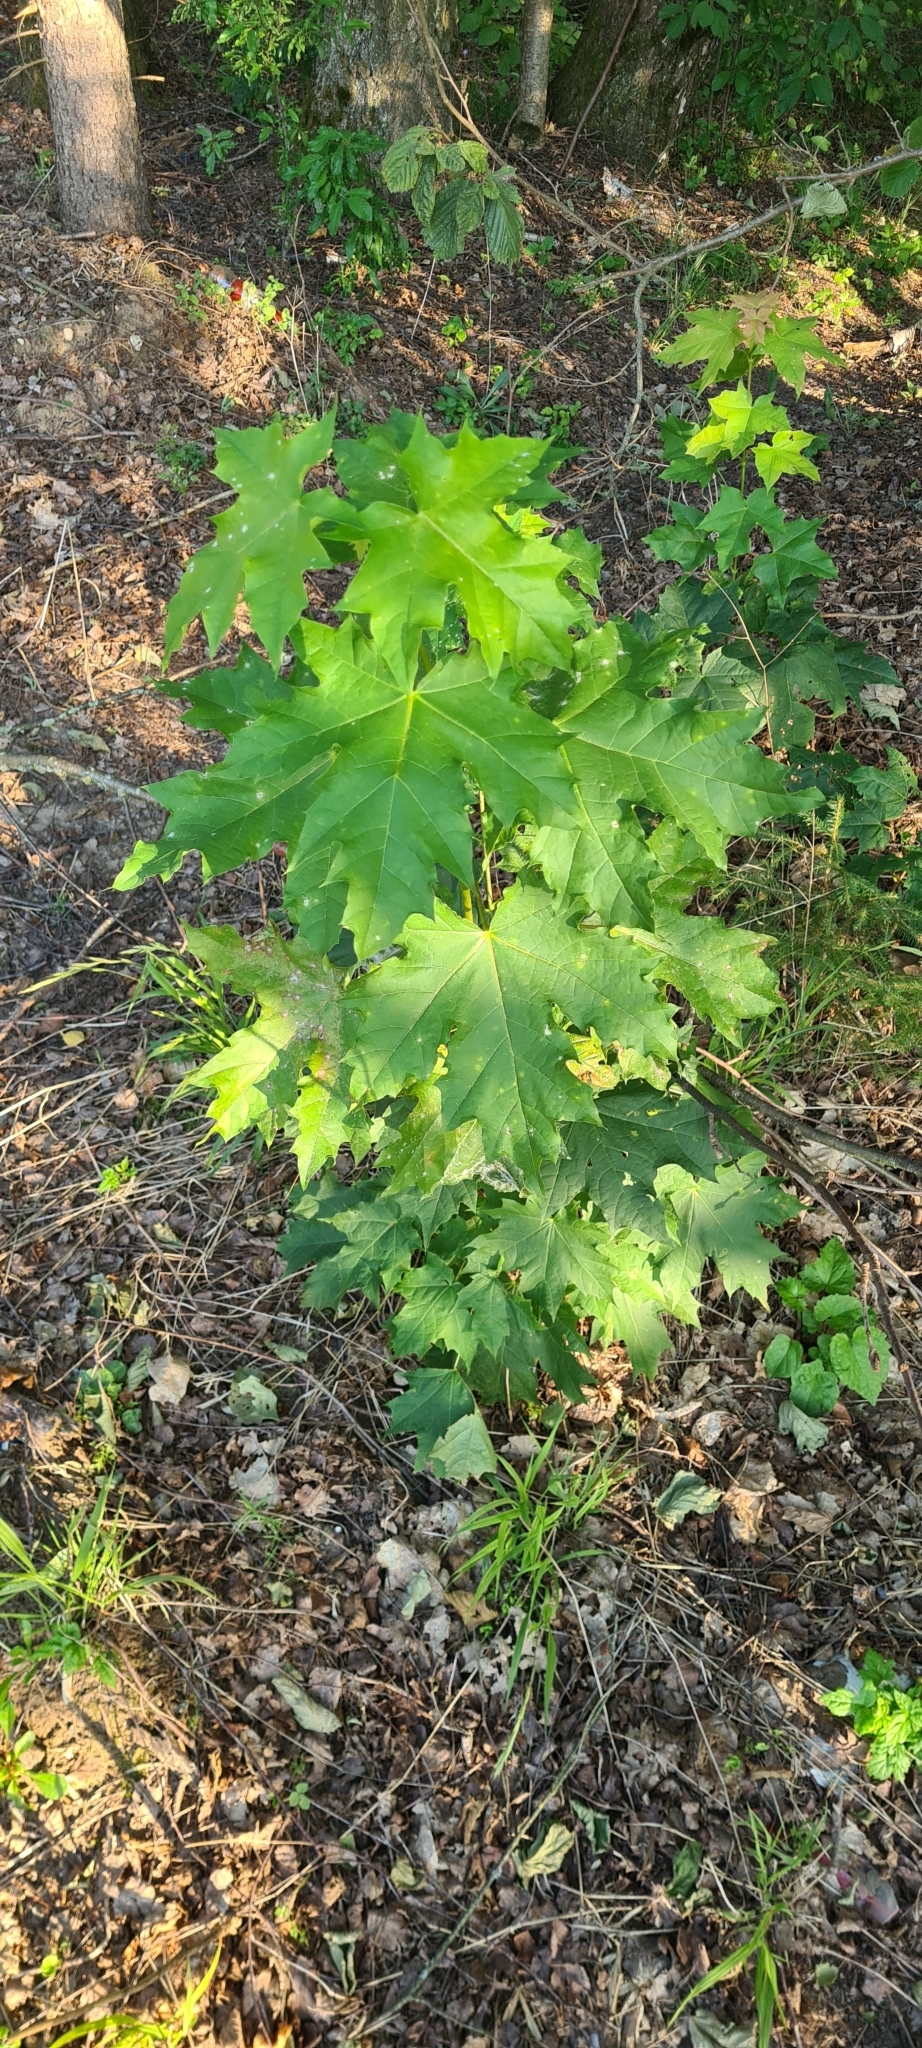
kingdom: Plantae
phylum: Tracheophyta
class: Magnoliopsida
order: Sapindales
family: Sapindaceae
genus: Acer
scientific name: Acer platanoides
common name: Norway maple
